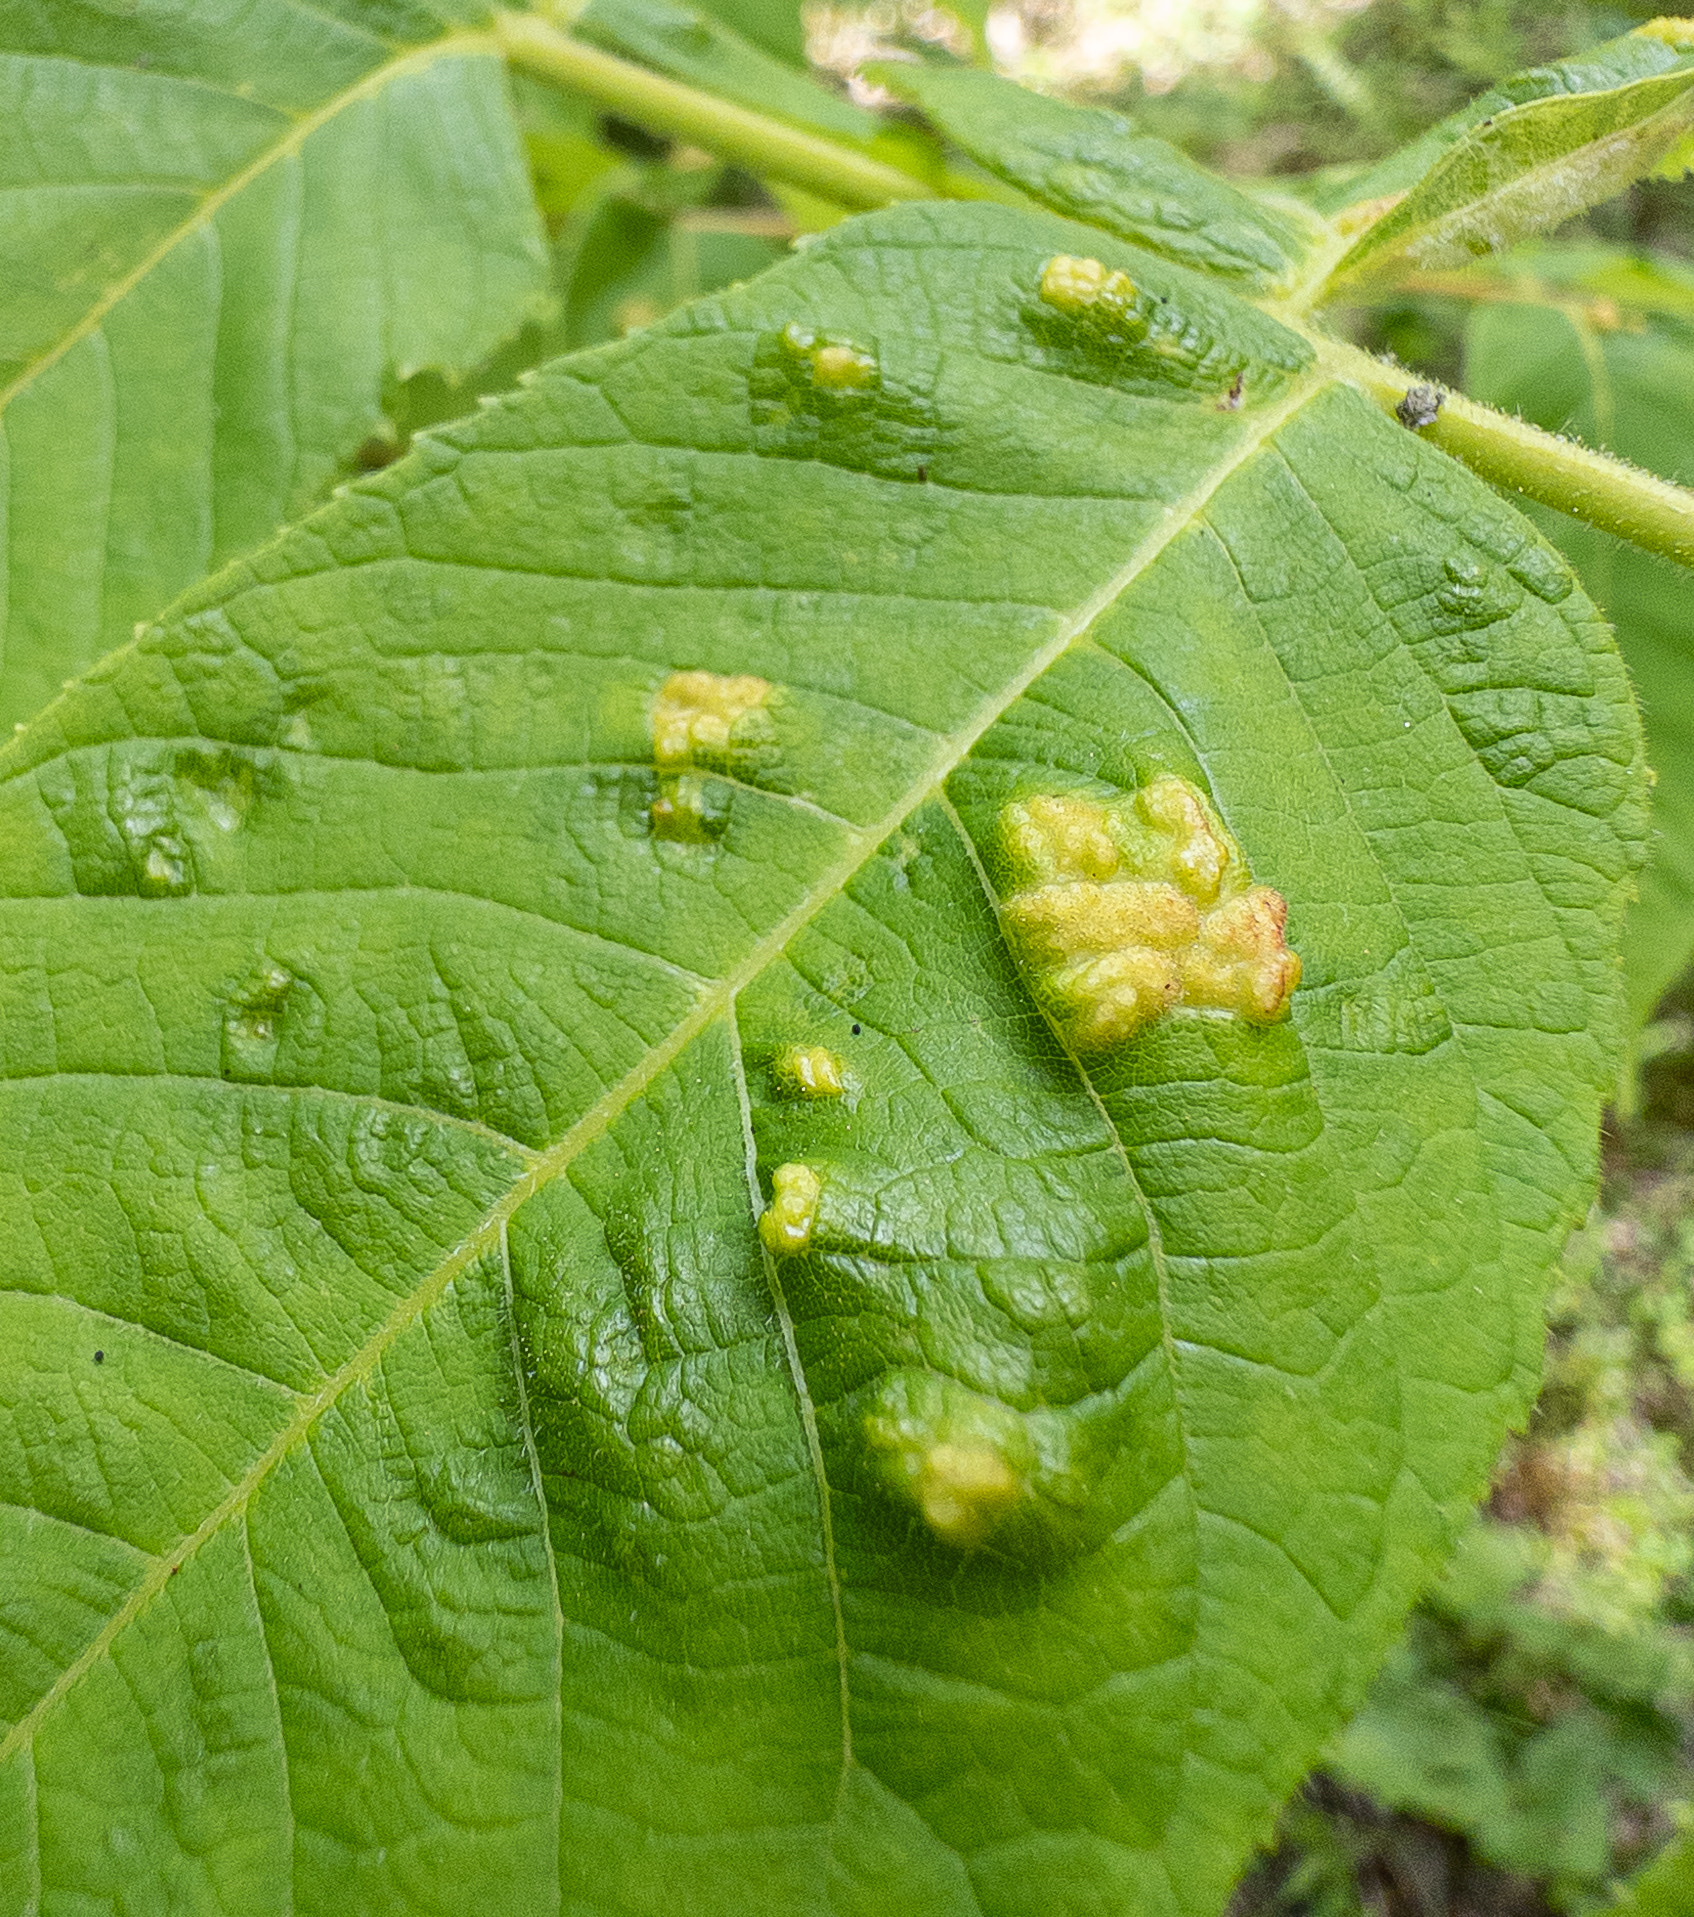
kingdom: Animalia
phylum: Arthropoda
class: Arachnida
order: Trombidiformes
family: Eriophyidae
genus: Aceria
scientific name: Aceria
